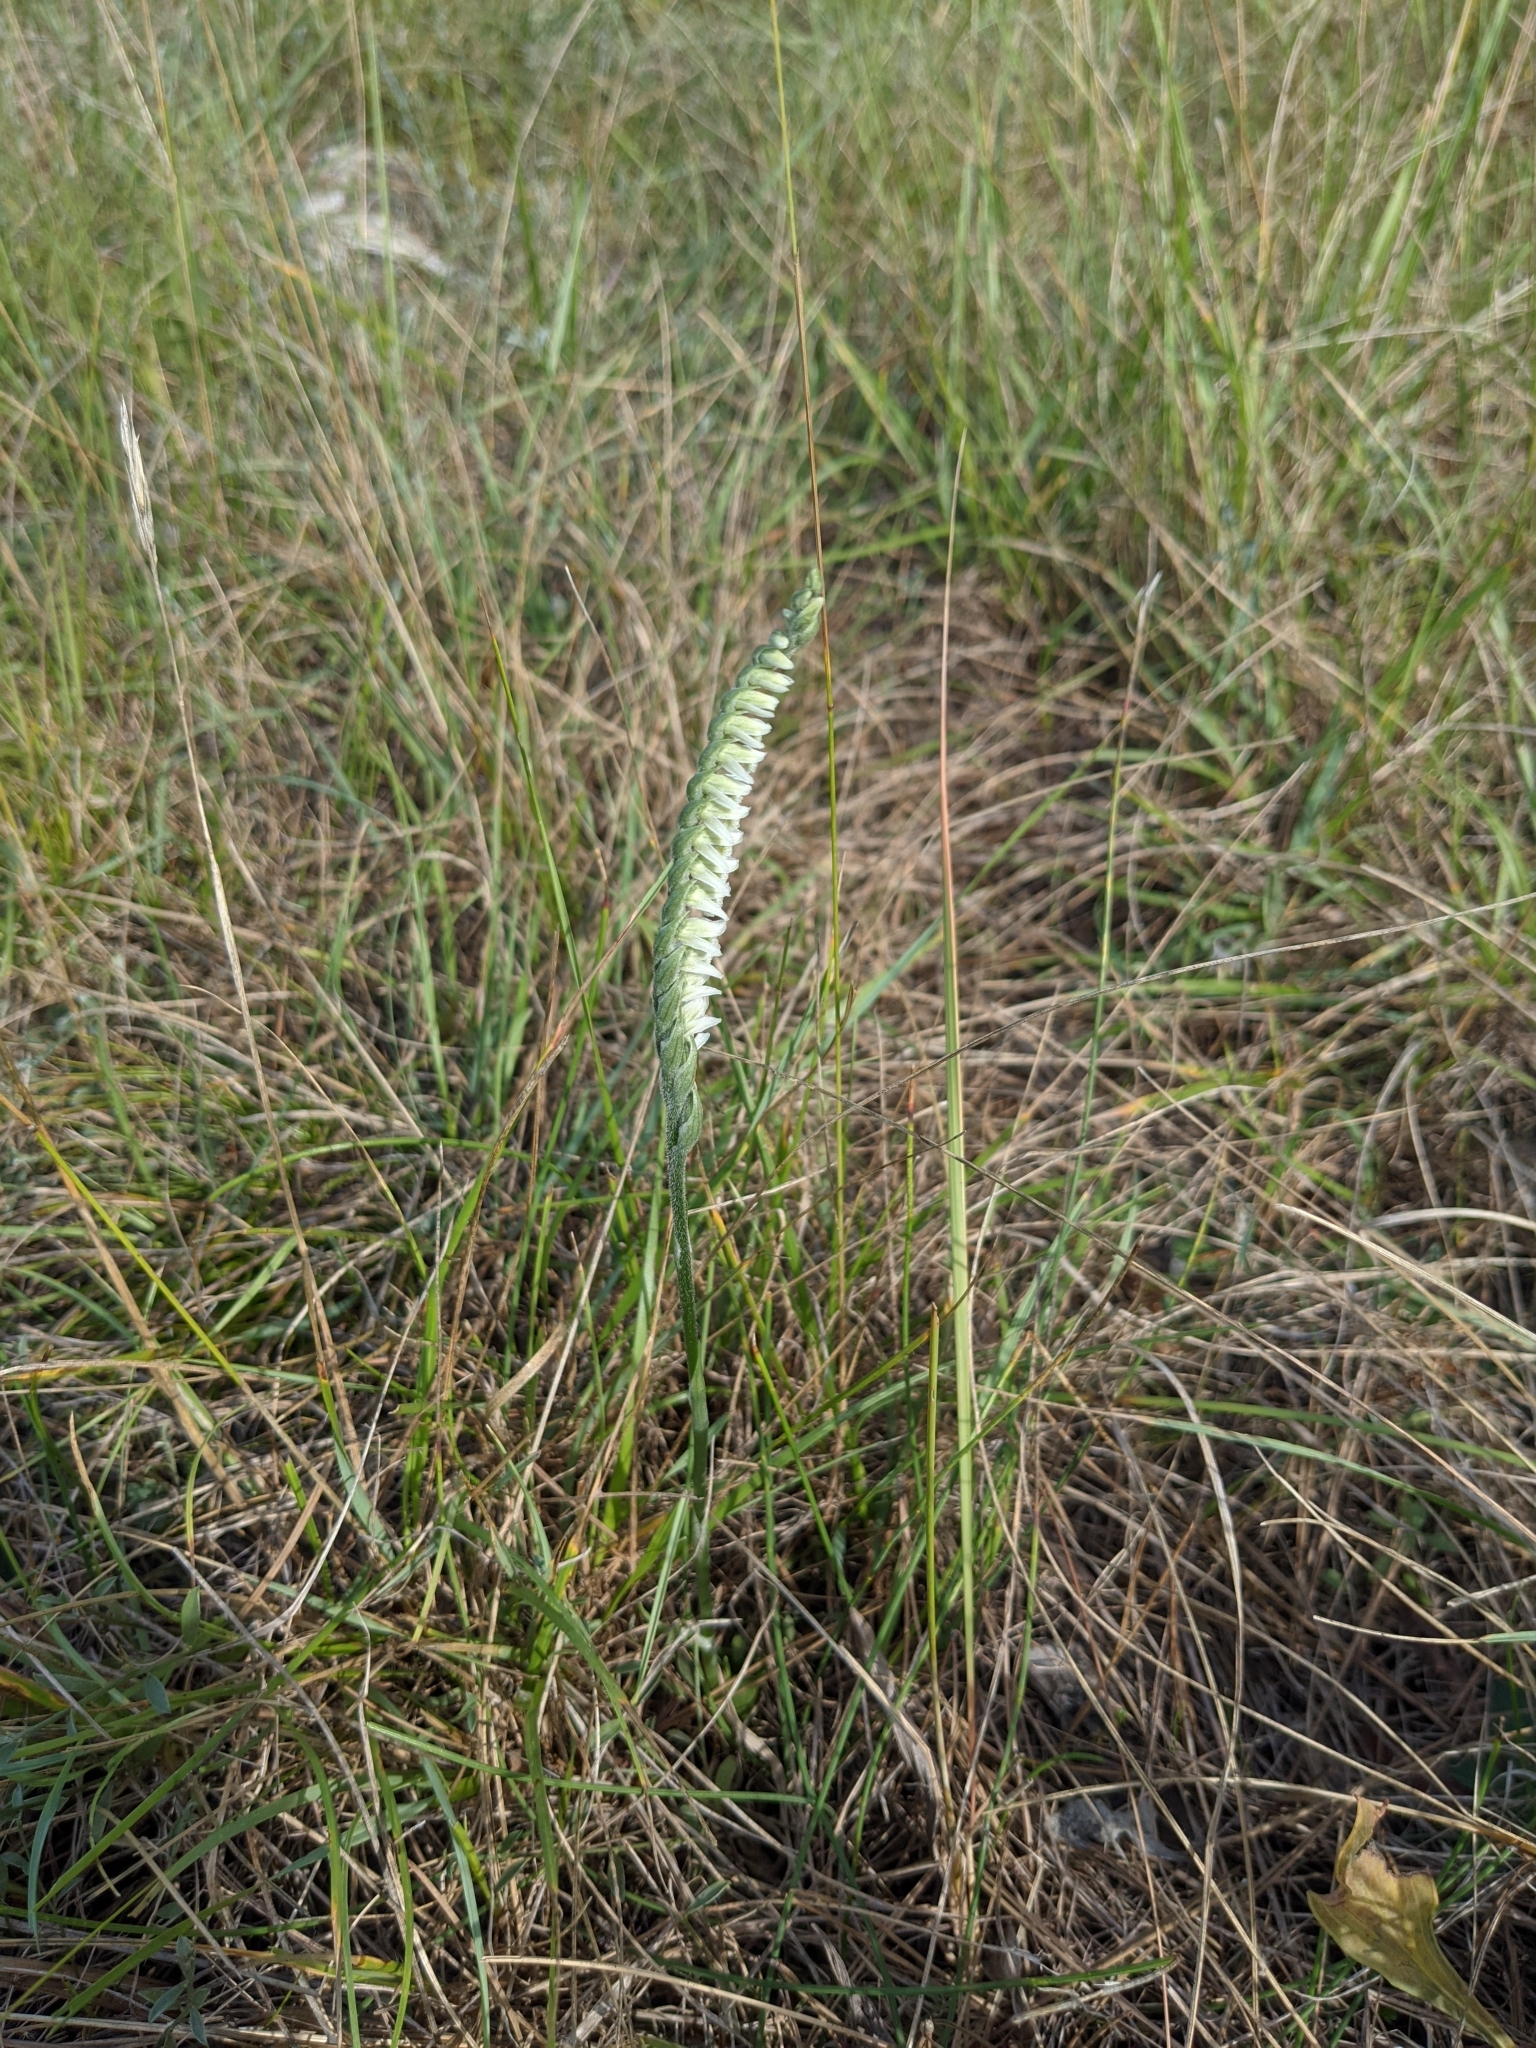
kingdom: Plantae
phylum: Tracheophyta
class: Liliopsida
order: Asparagales
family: Orchidaceae
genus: Spiranthes
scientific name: Spiranthes spiralis
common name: Autumn lady's-tresses
